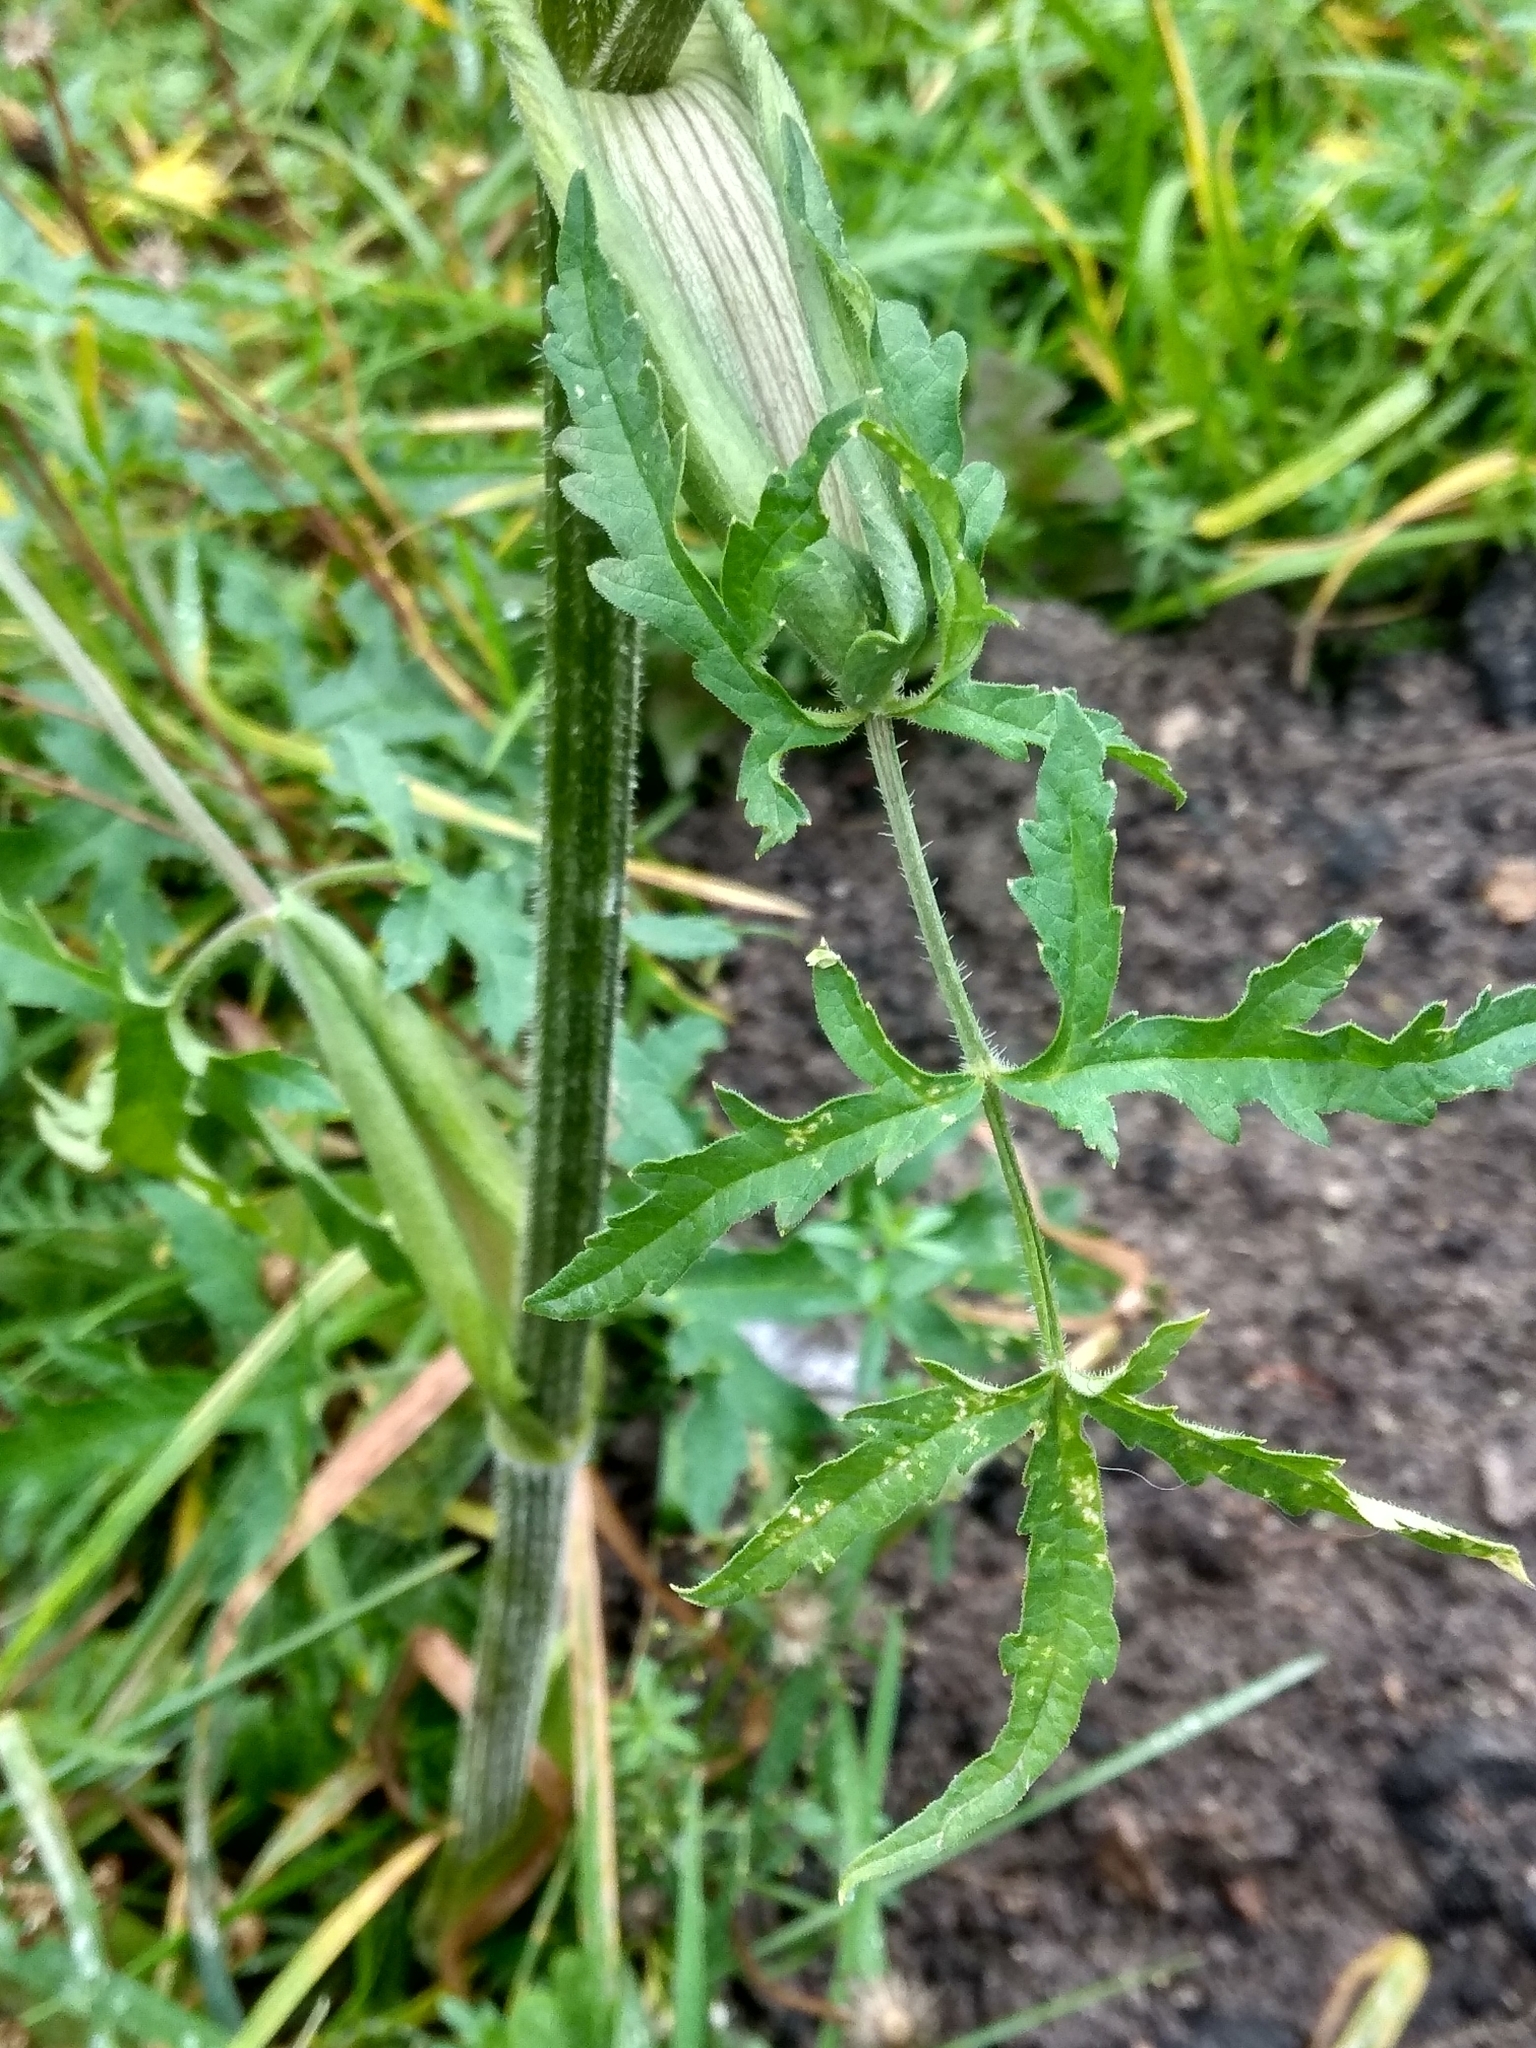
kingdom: Plantae
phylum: Tracheophyta
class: Magnoliopsida
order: Apiales
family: Apiaceae
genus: Heracleum
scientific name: Heracleum sphondylium
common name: Hogweed
